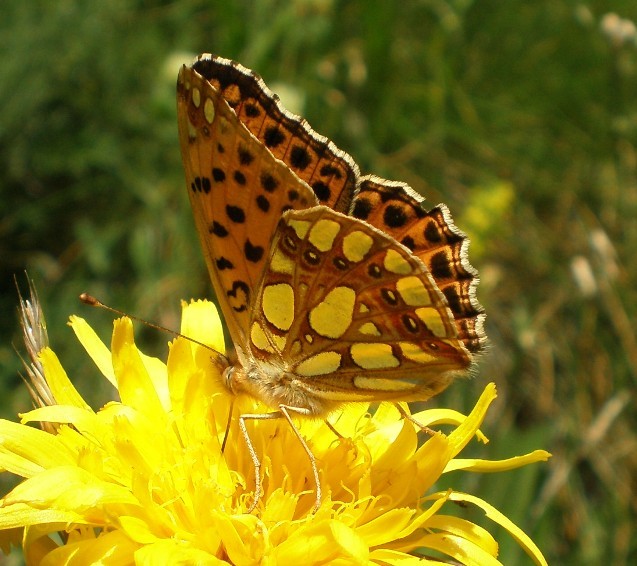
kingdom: Animalia
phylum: Arthropoda
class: Insecta
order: Lepidoptera
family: Nymphalidae
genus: Issoria
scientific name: Issoria lathonia
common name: Queen of spain fritillary
